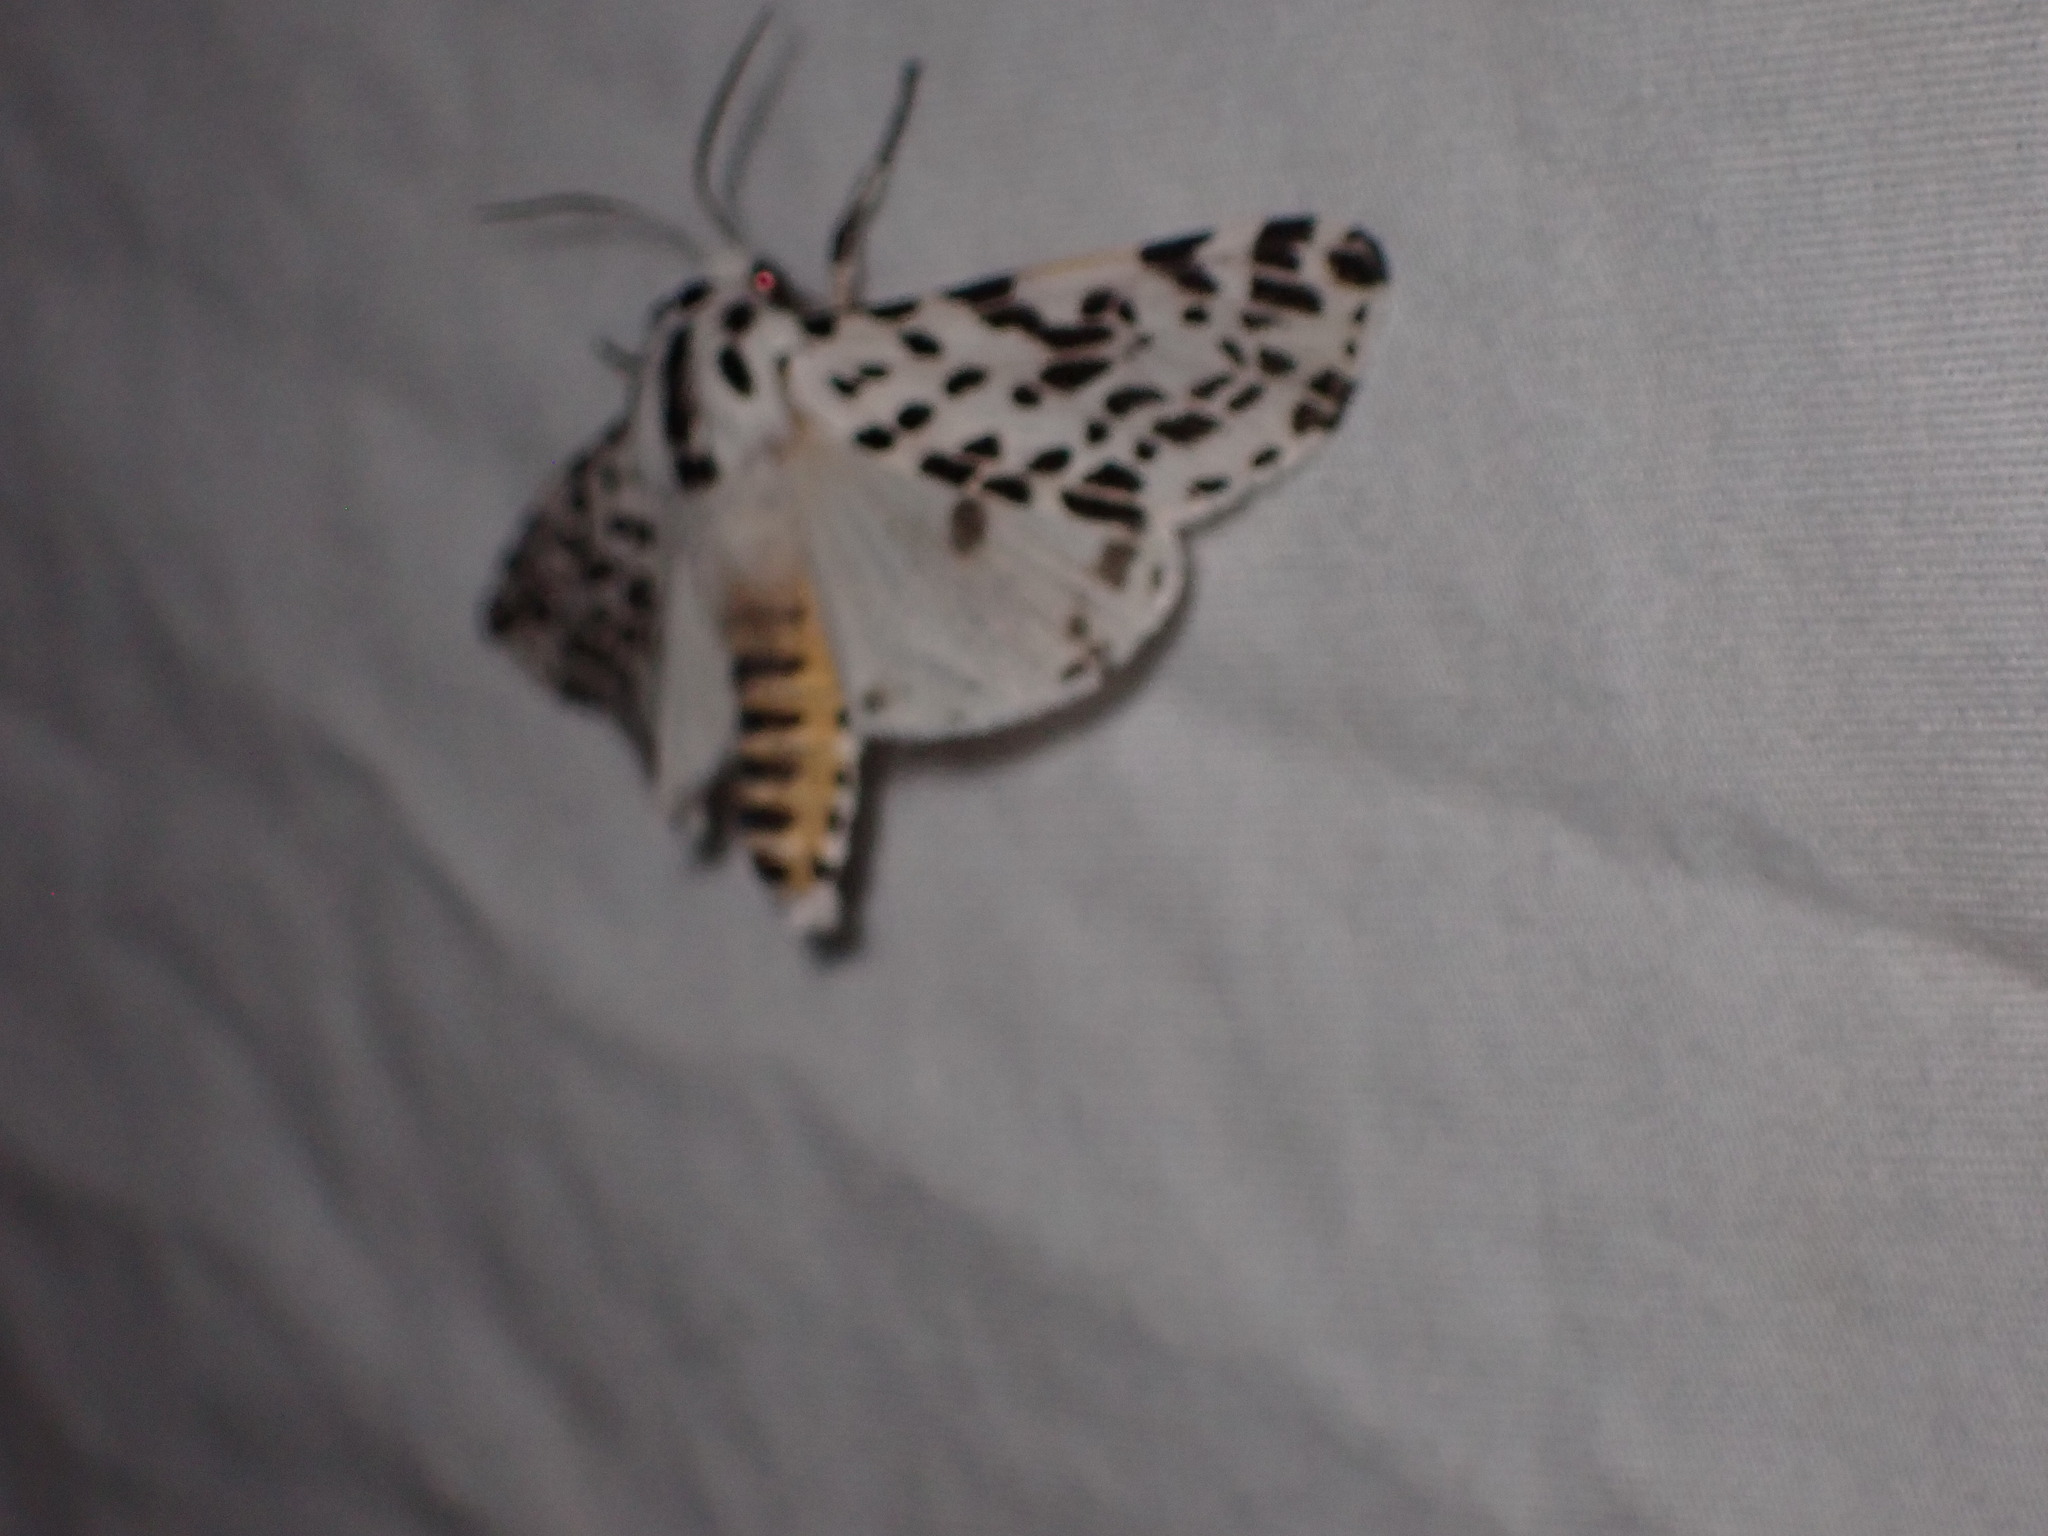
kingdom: Animalia
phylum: Arthropoda
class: Insecta
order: Lepidoptera
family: Erebidae
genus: Hypercompe
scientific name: Hypercompe permaculata
